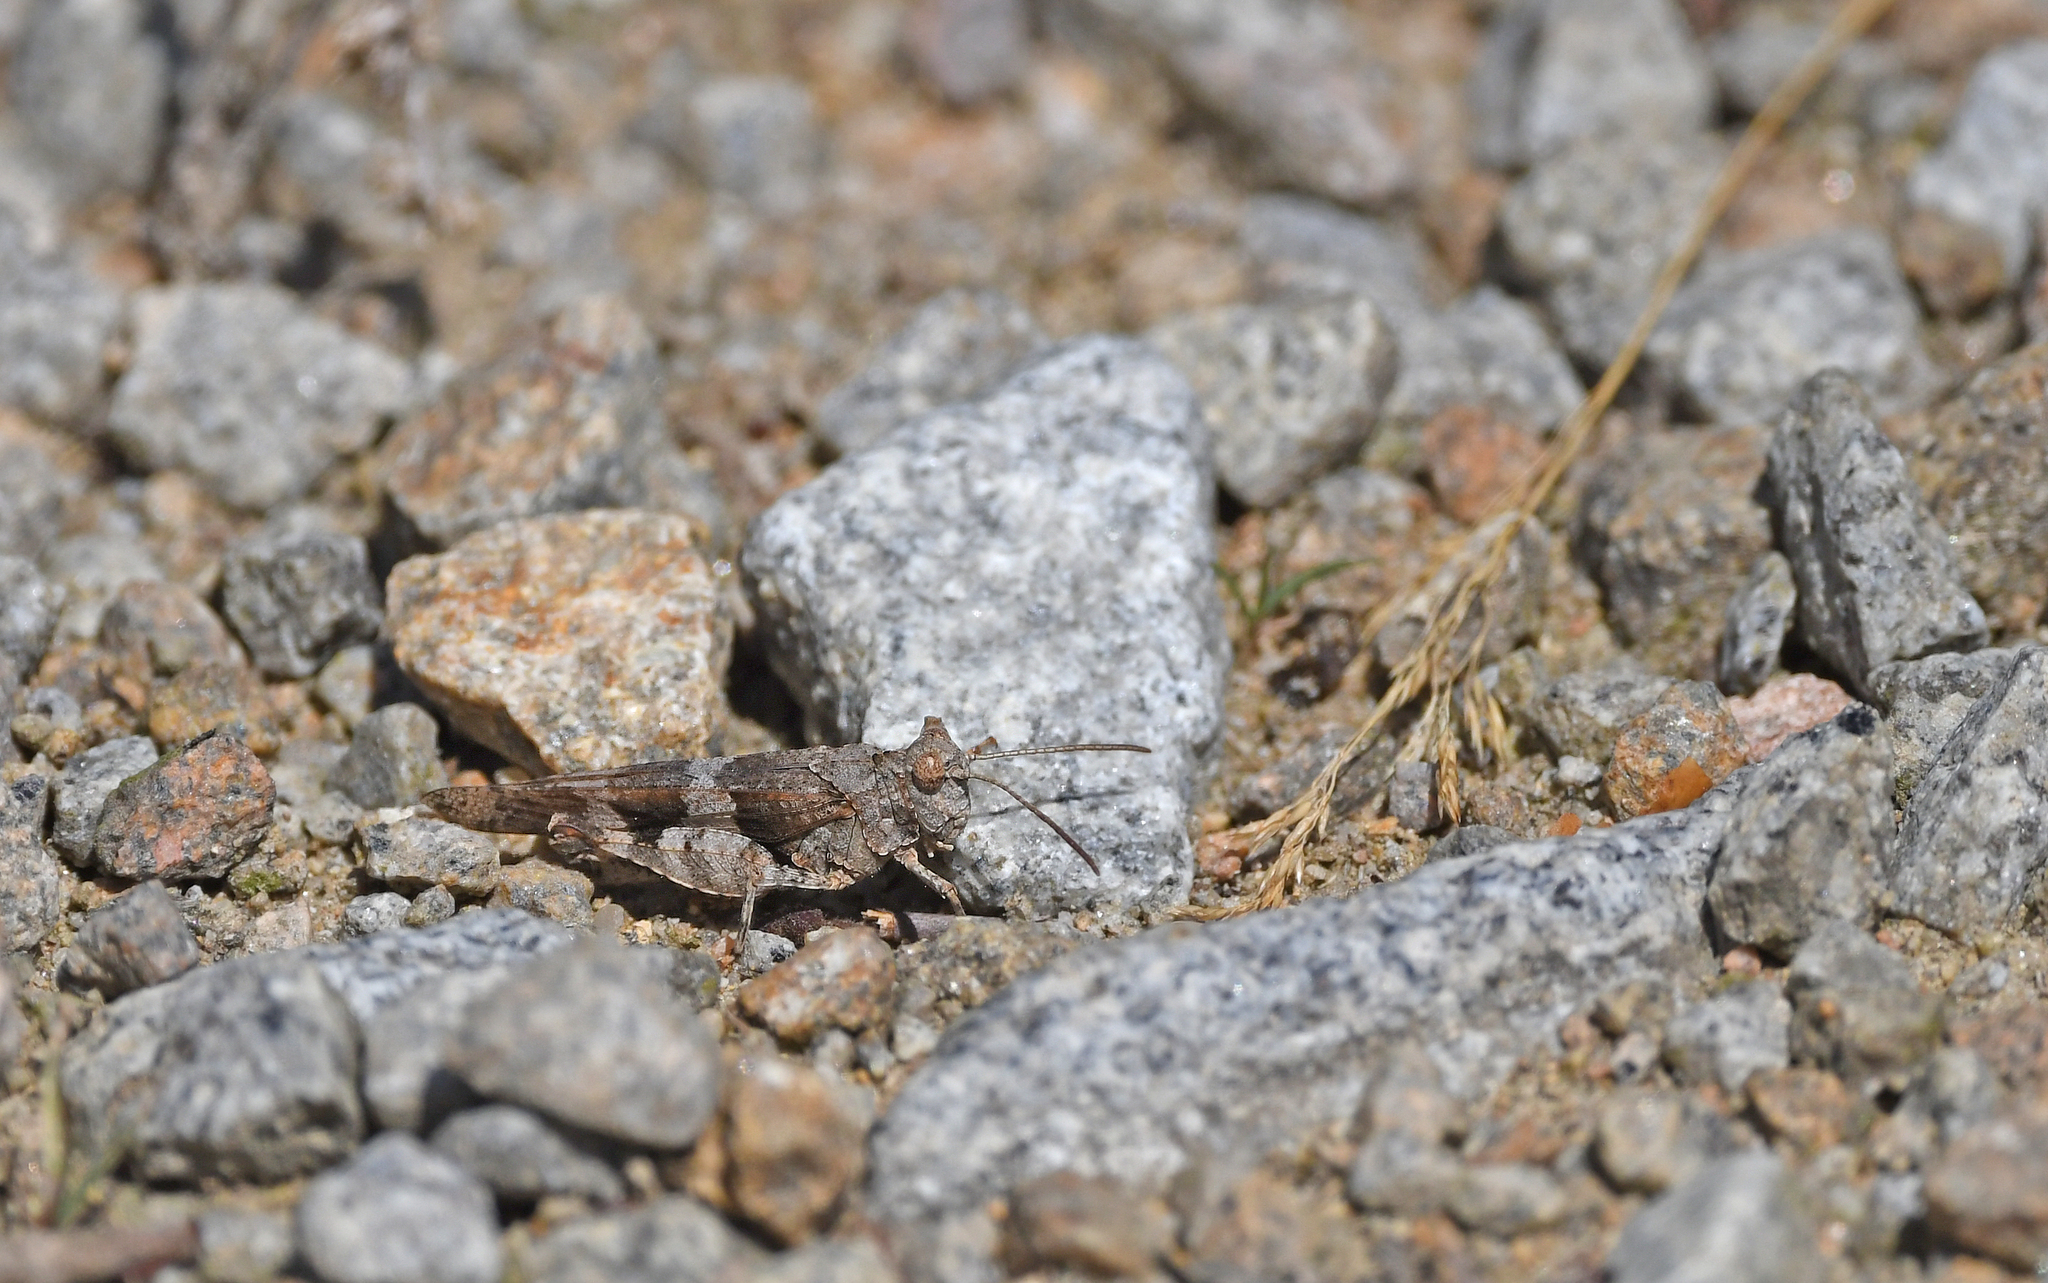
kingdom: Animalia
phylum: Arthropoda
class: Insecta
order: Orthoptera
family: Acrididae
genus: Oedipoda
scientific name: Oedipoda caerulescens
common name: Blue-winged grasshopper
